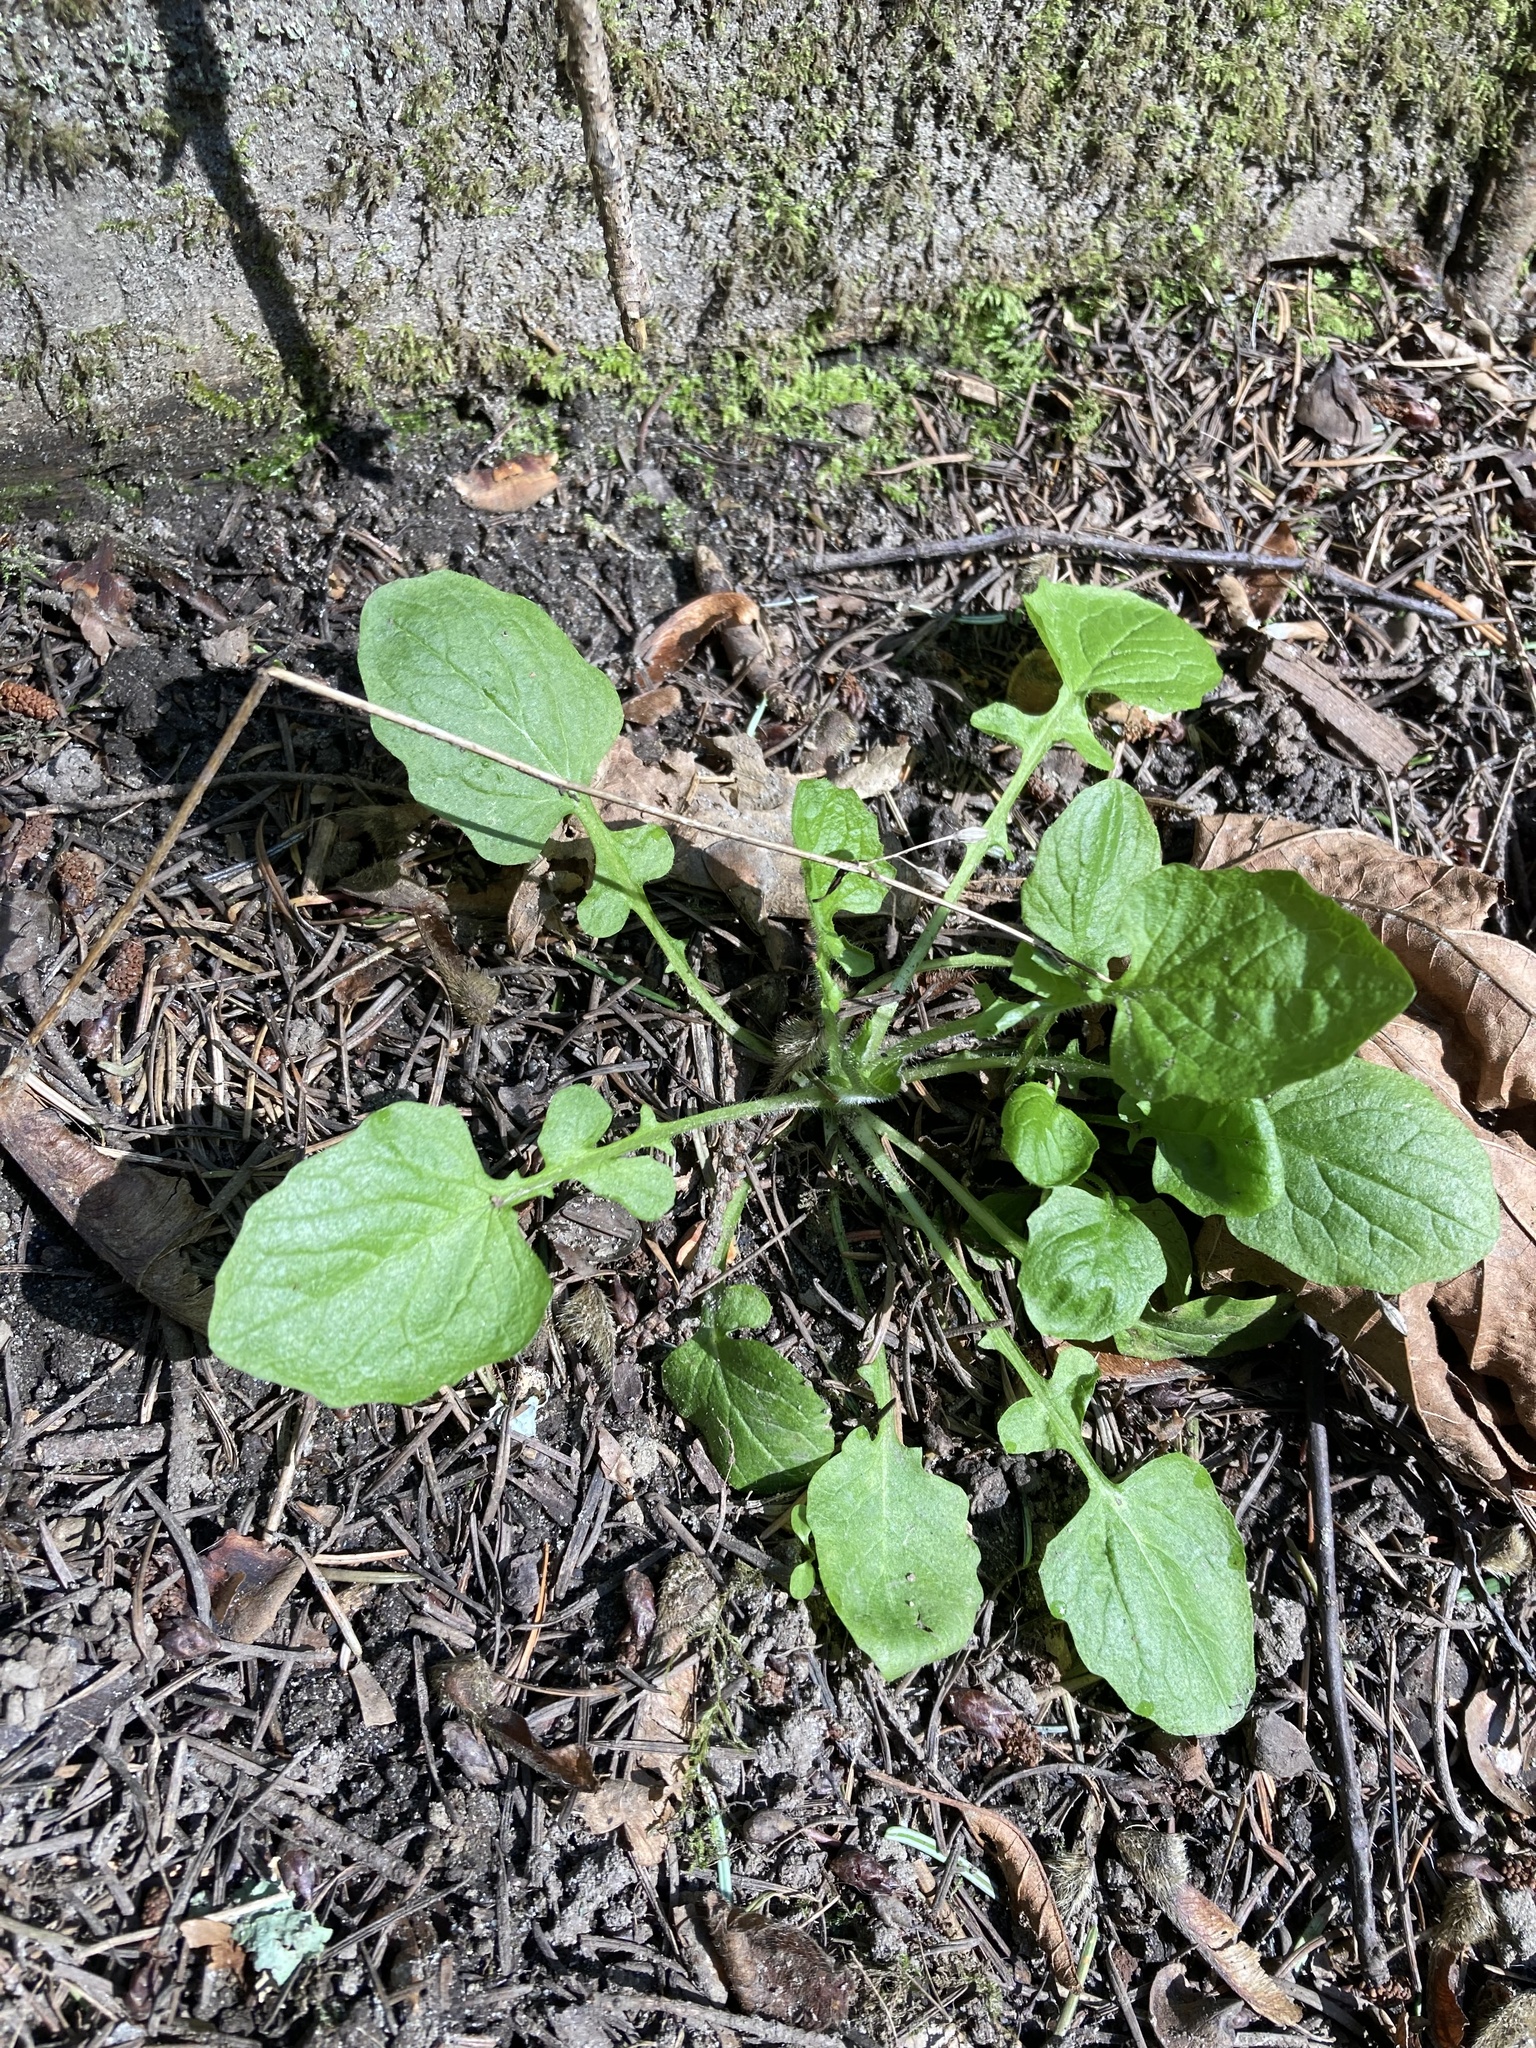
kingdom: Plantae
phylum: Tracheophyta
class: Magnoliopsida
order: Asterales
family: Asteraceae
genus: Lapsana
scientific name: Lapsana communis
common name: Nipplewort
